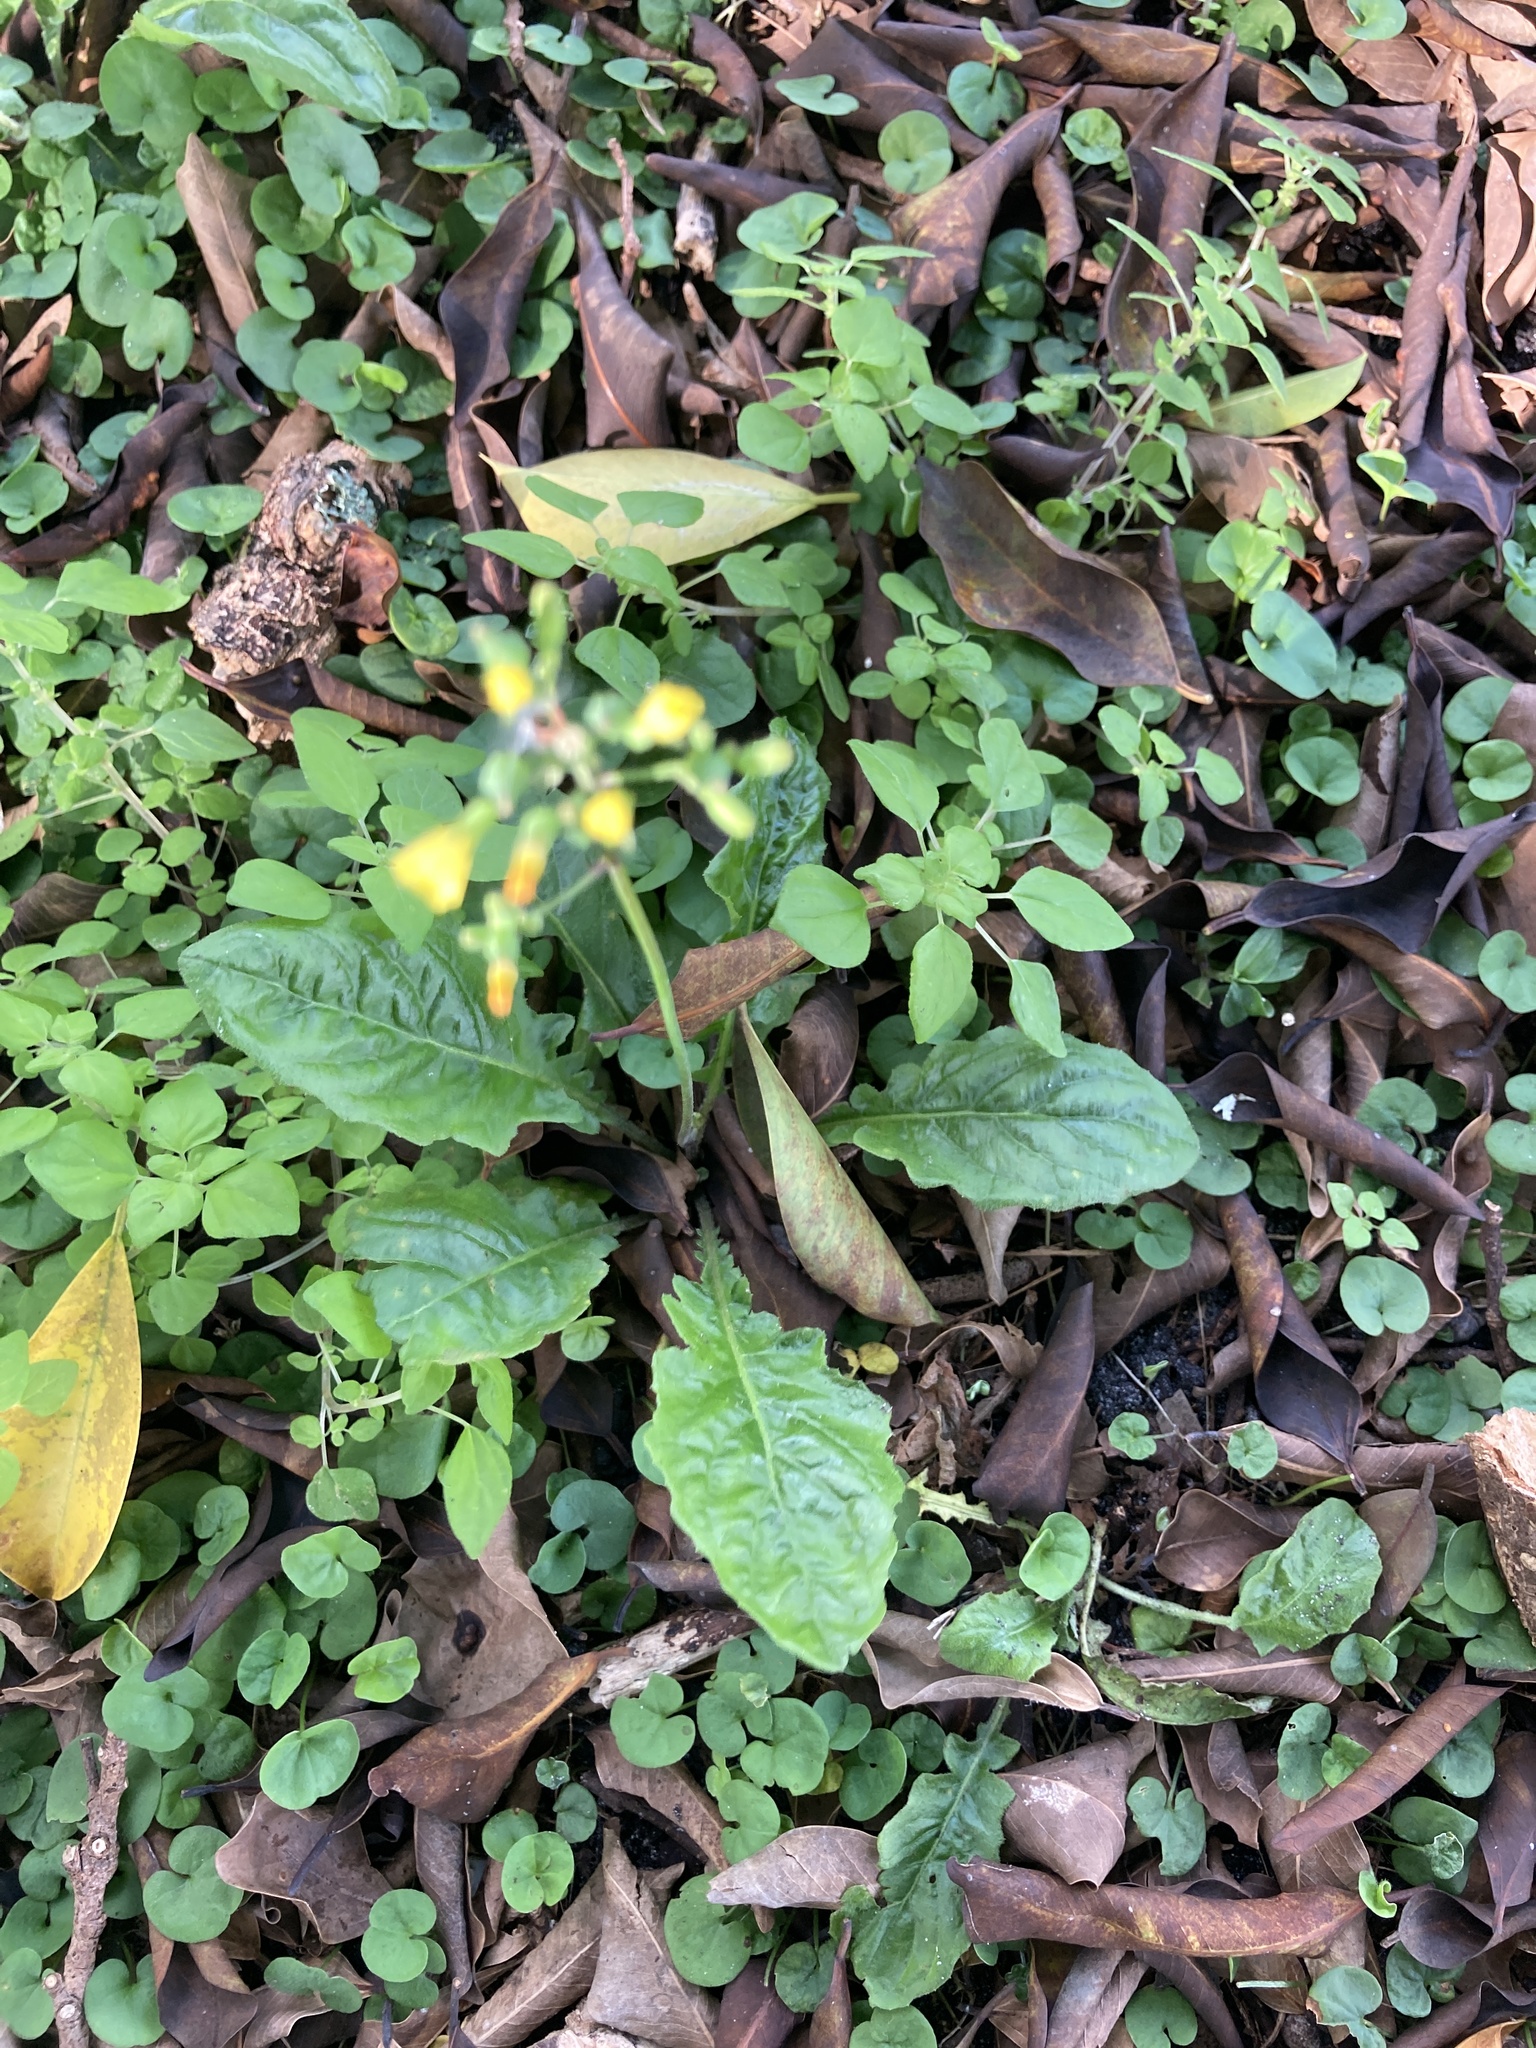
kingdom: Plantae
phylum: Tracheophyta
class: Magnoliopsida
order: Asterales
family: Asteraceae
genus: Youngia
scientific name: Youngia japonica
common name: Oriental false hawksbeard
